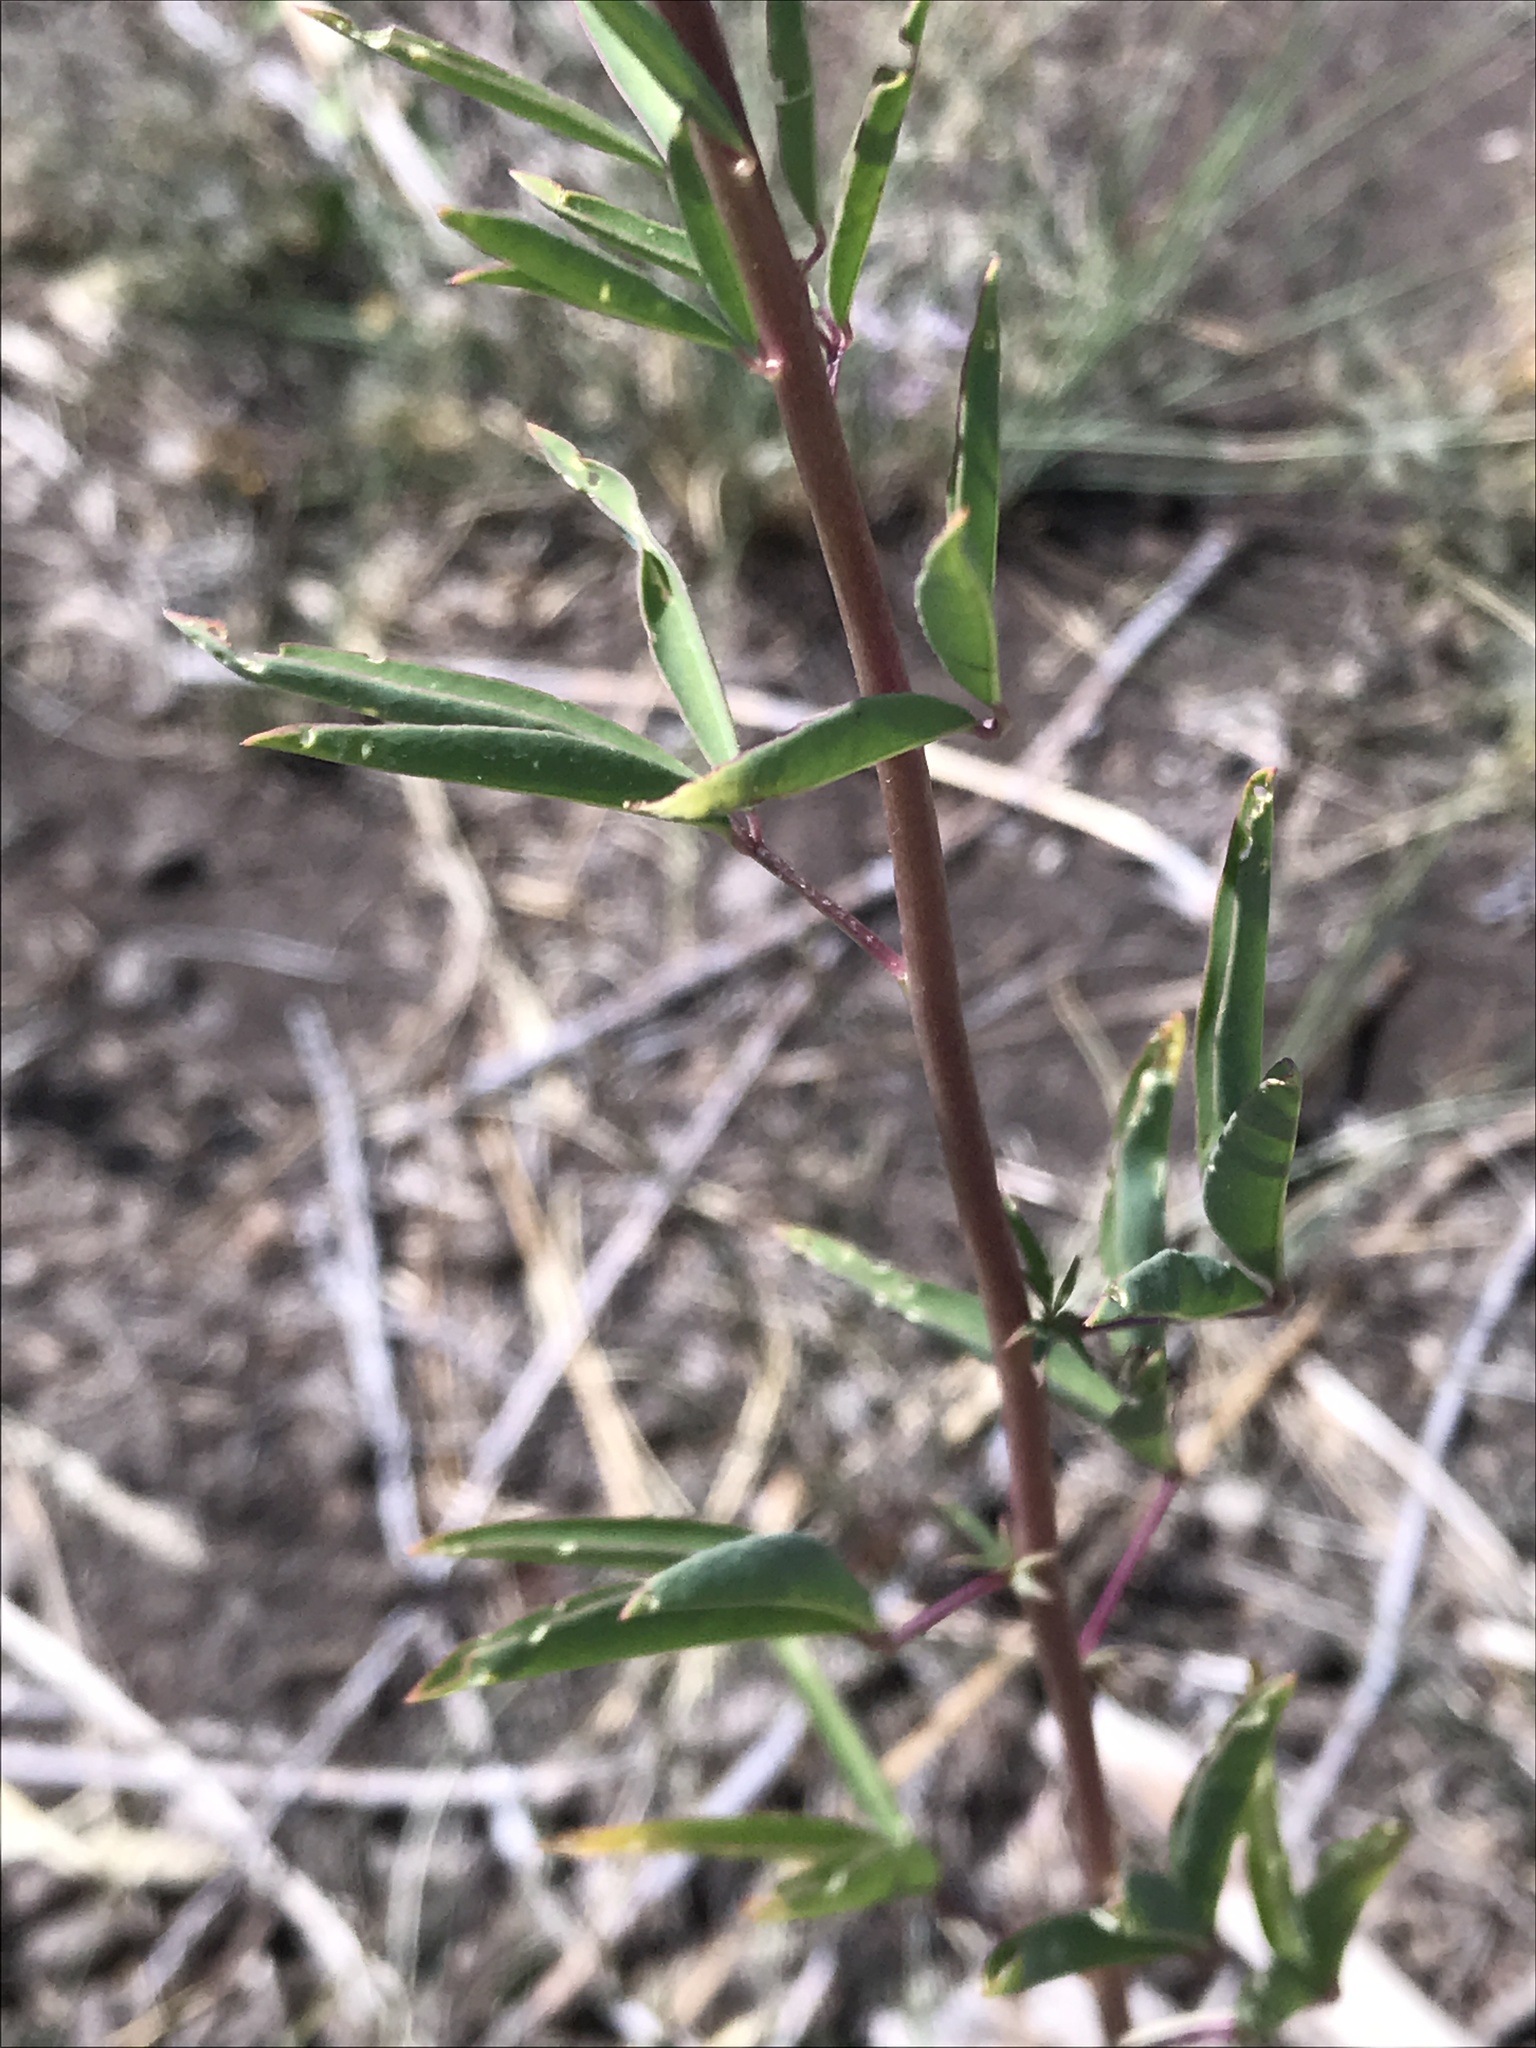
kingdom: Plantae
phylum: Tracheophyta
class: Magnoliopsida
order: Brassicales
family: Cleomaceae
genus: Cleomella
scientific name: Cleomella serrulata
